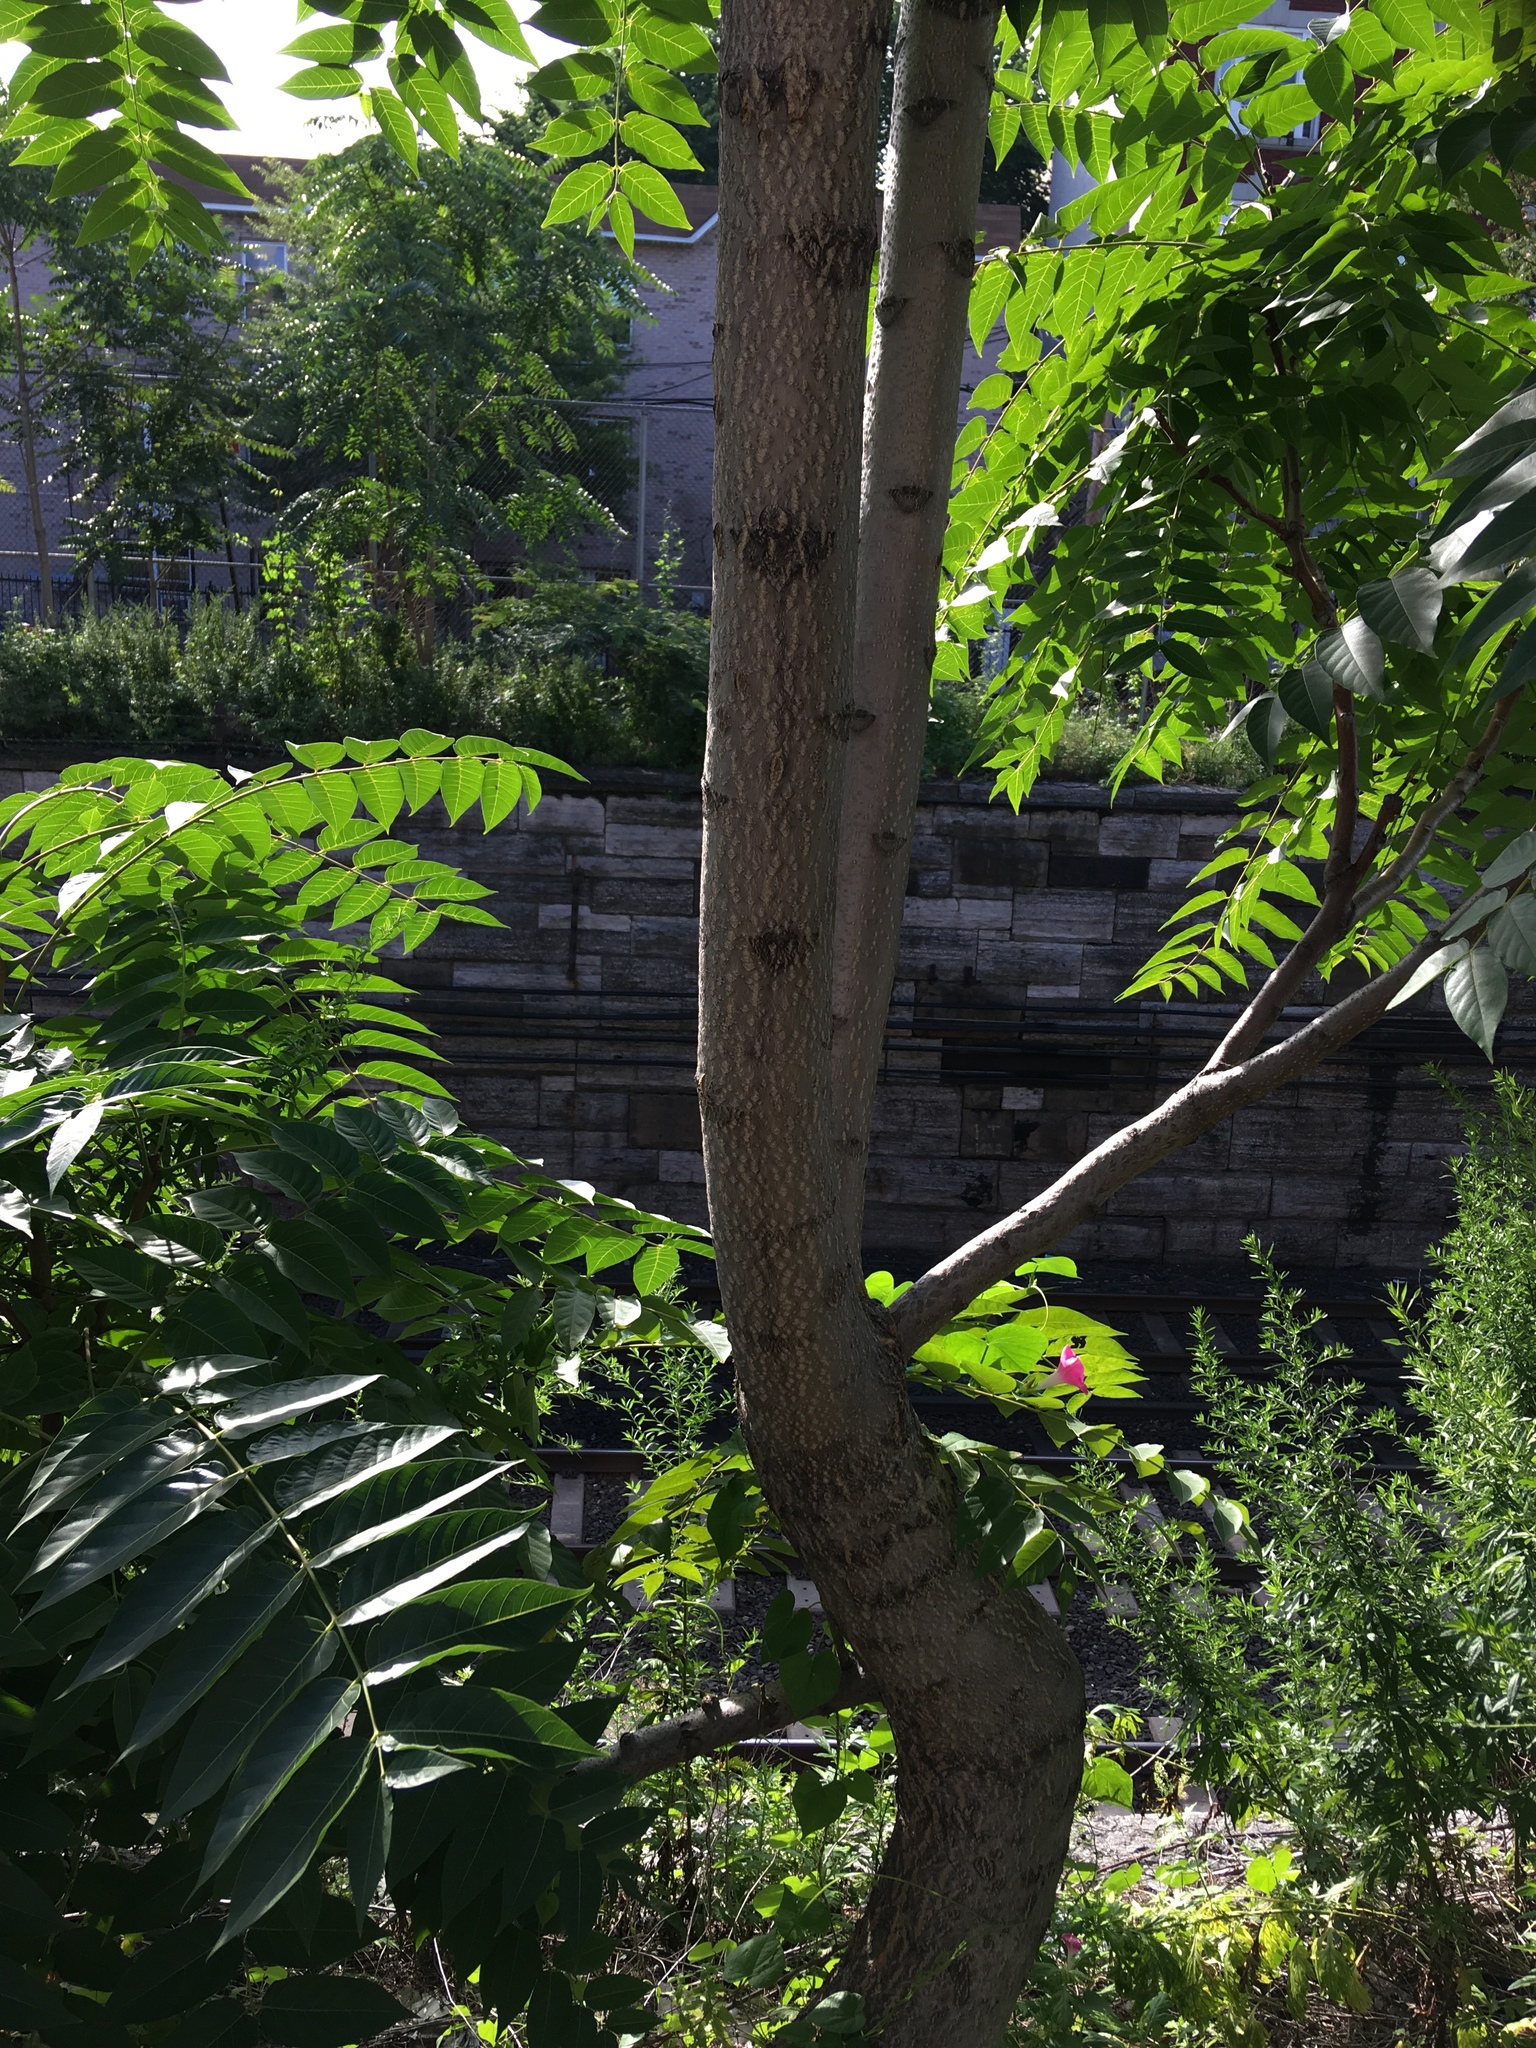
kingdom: Plantae
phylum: Tracheophyta
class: Magnoliopsida
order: Sapindales
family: Simaroubaceae
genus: Ailanthus
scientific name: Ailanthus altissima
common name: Tree-of-heaven
